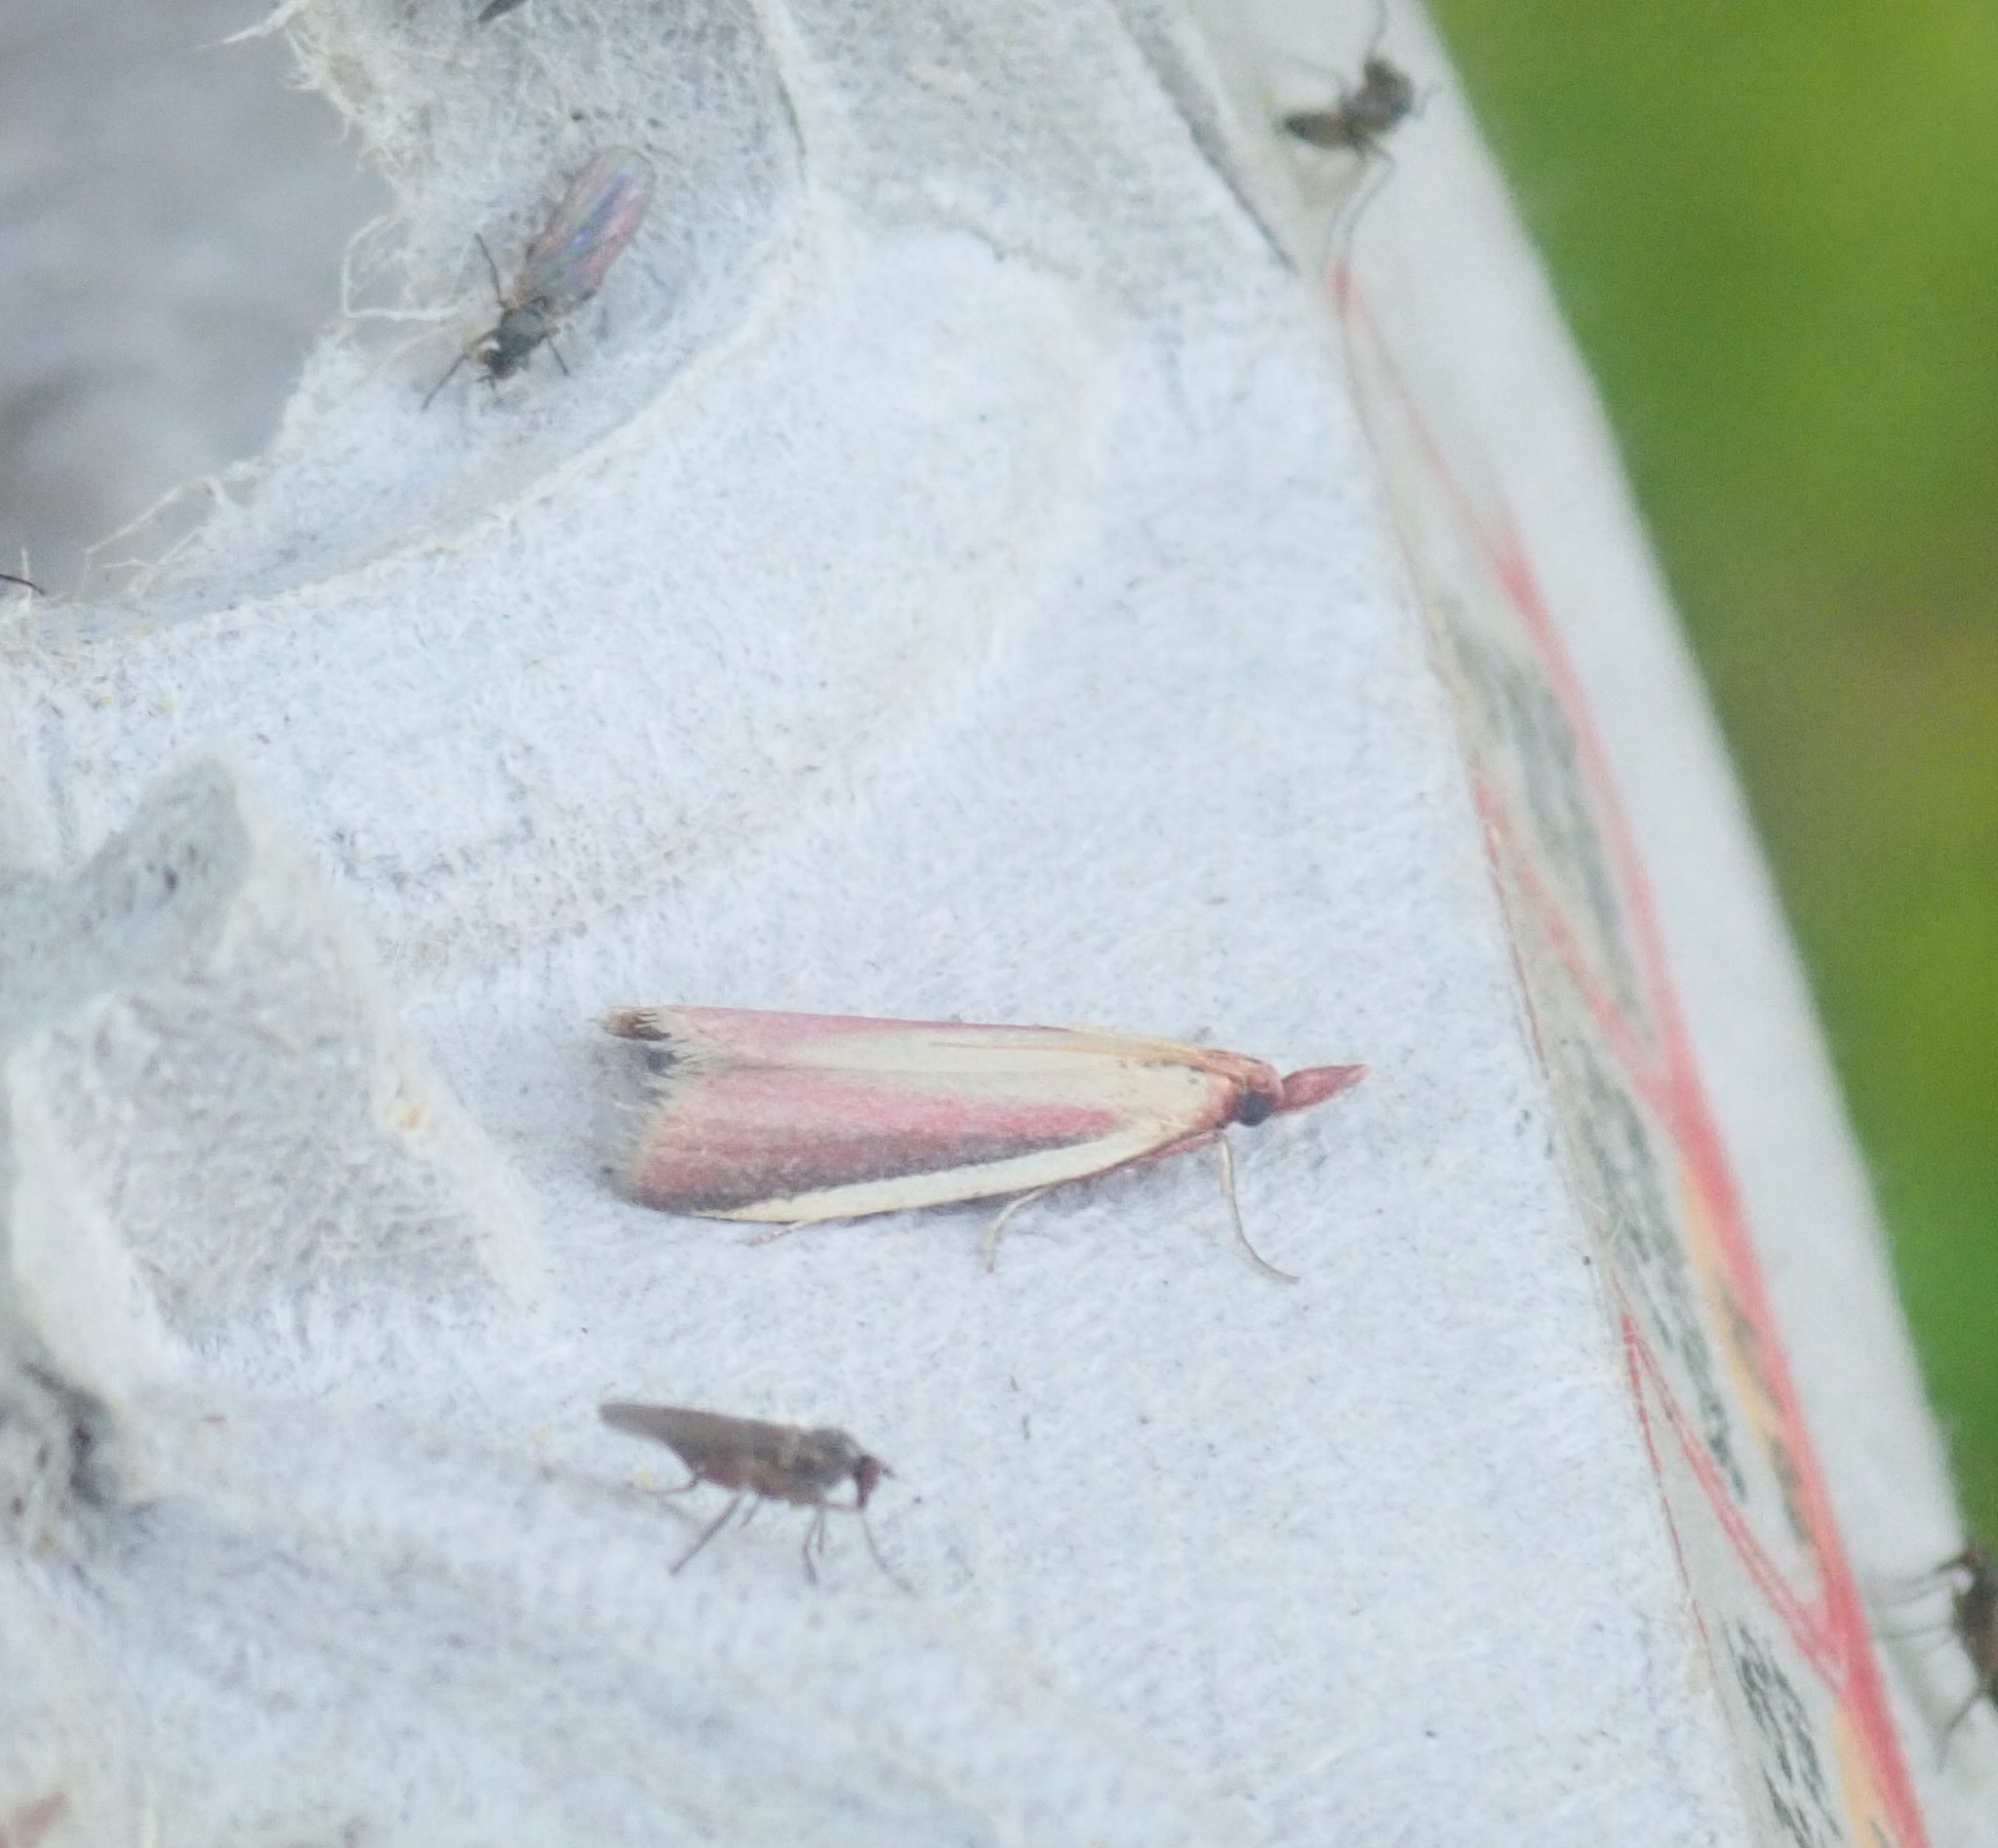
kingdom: Animalia
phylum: Arthropoda
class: Insecta
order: Lepidoptera
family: Pyralidae
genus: Peoria
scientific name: Peoria approximella
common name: Carmine snout
